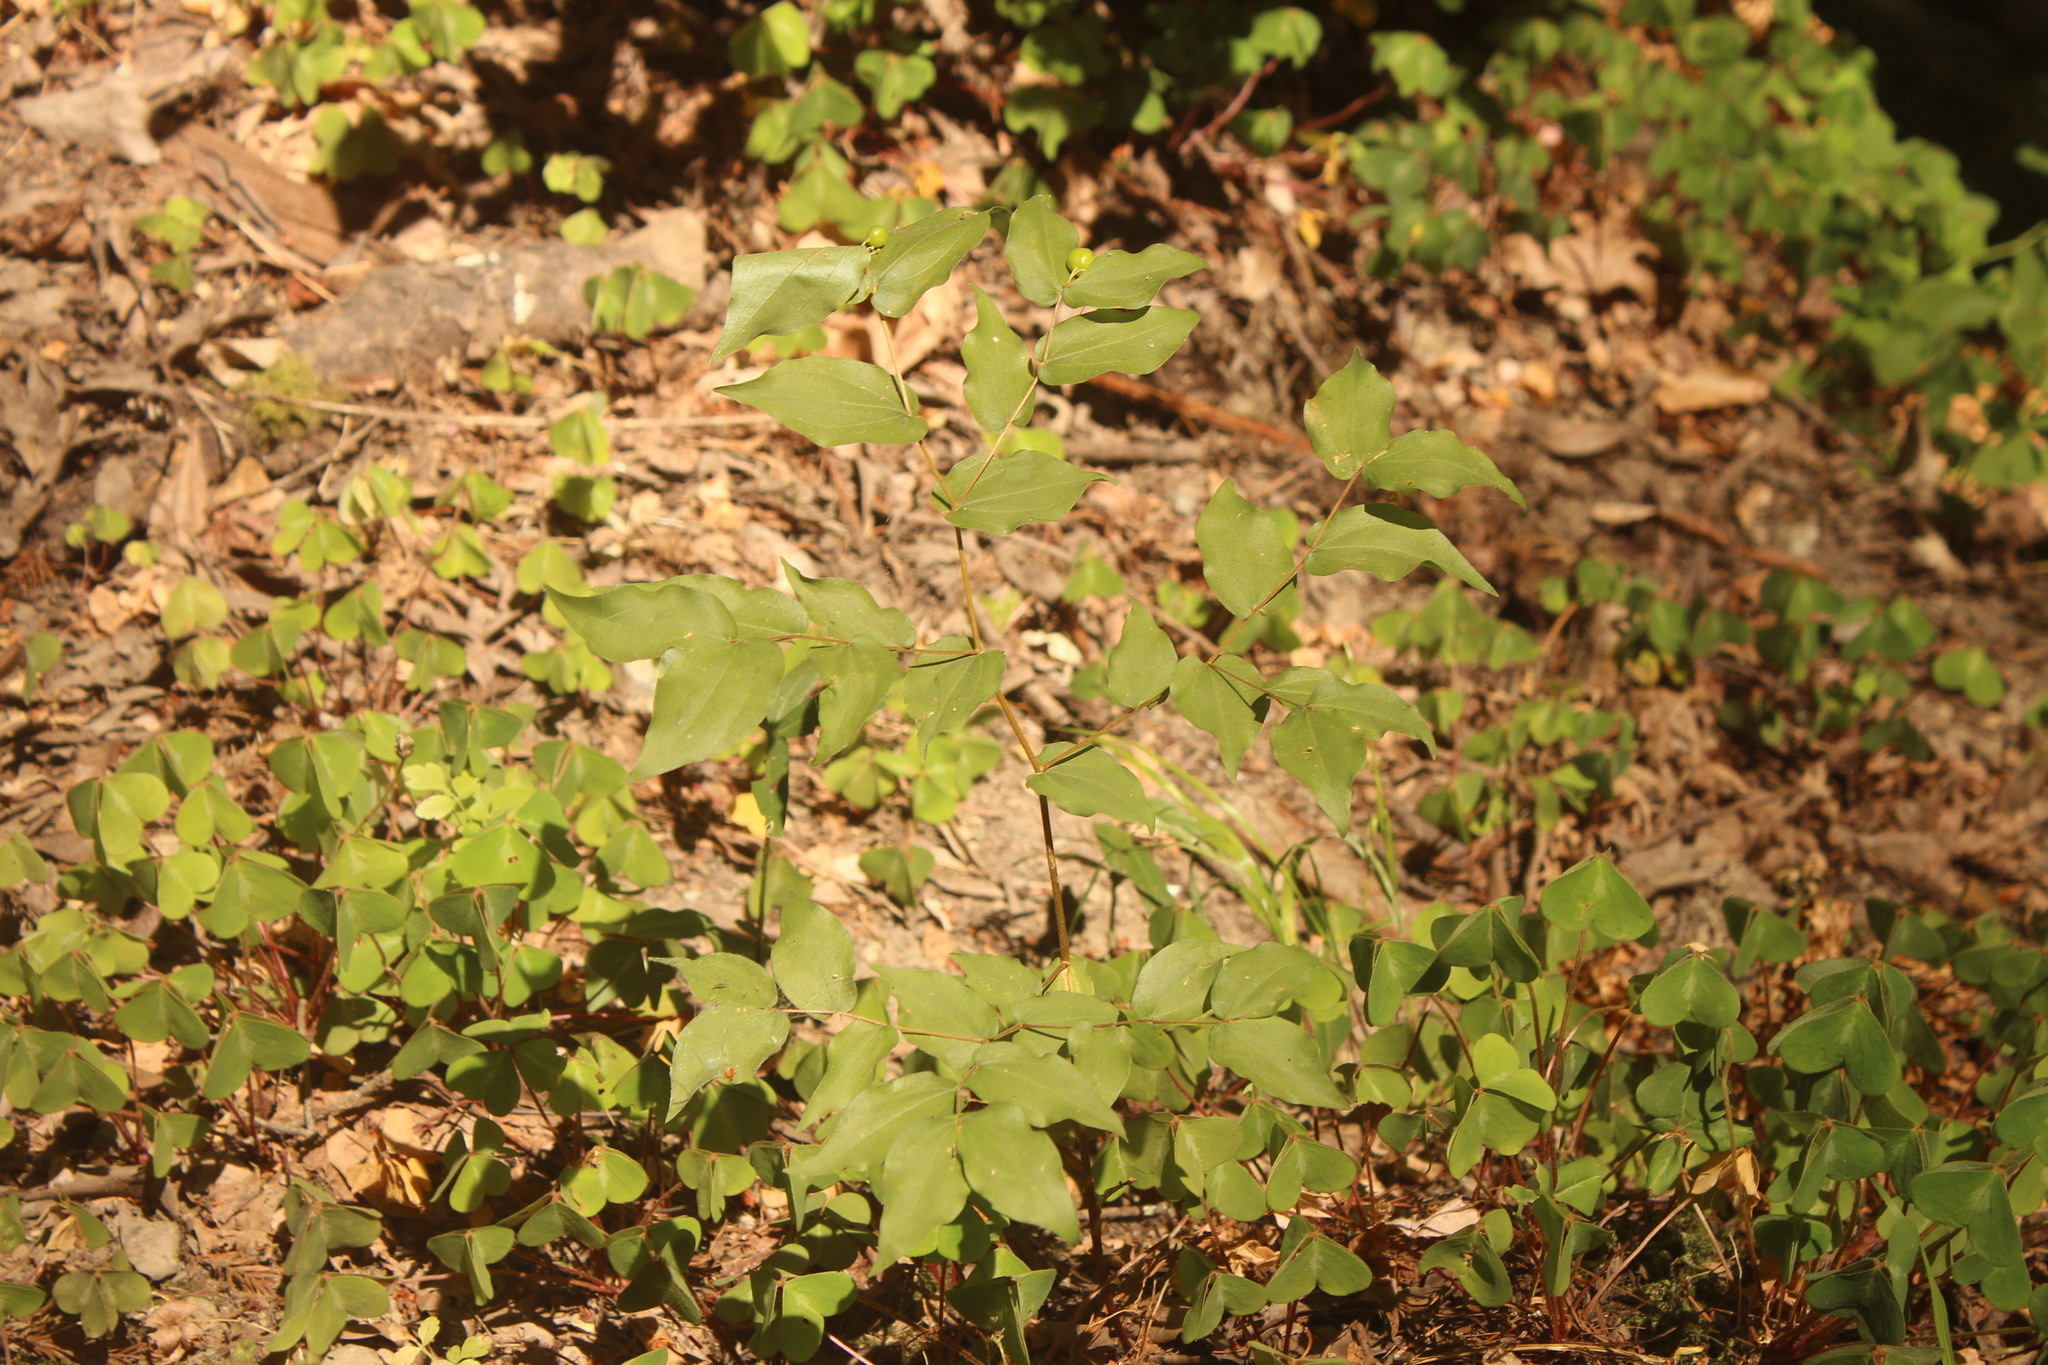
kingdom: Plantae
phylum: Tracheophyta
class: Liliopsida
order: Liliales
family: Liliaceae
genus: Prosartes
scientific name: Prosartes hookeri
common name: Fairy-bells
